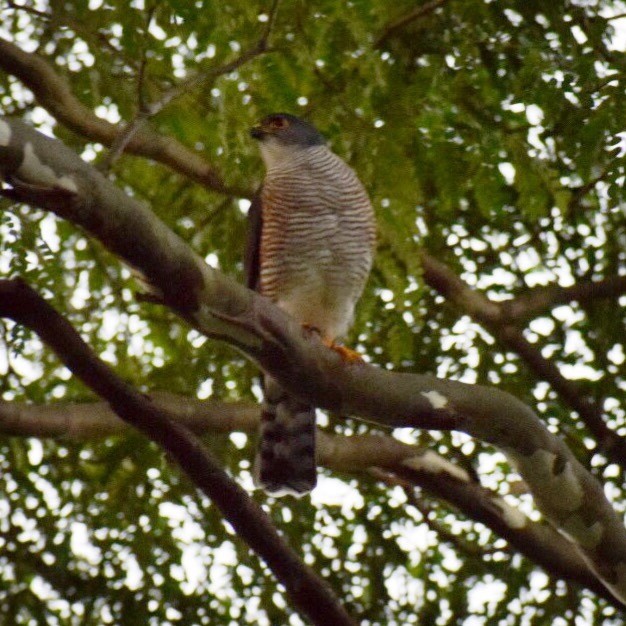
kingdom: Animalia
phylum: Chordata
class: Aves
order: Accipitriformes
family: Accipitridae
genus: Accipiter
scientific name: Accipiter minullus
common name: Little sparrowhawk
